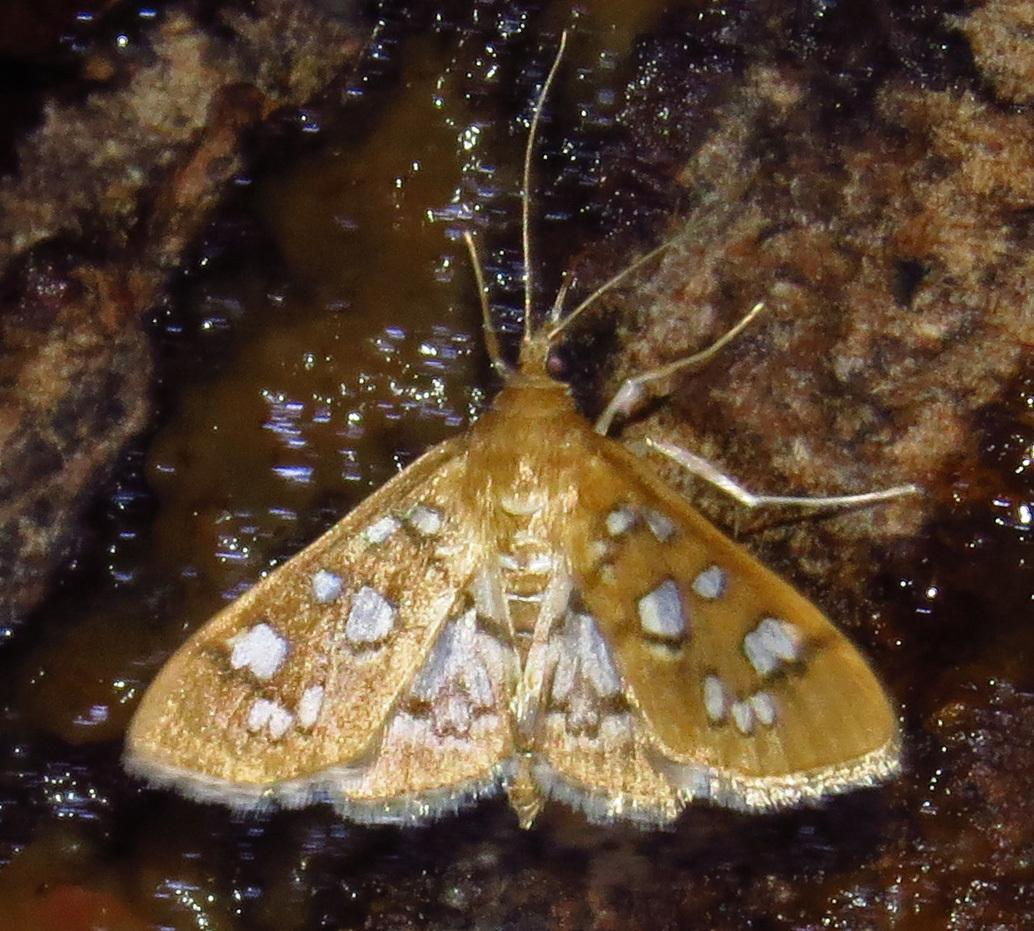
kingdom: Animalia
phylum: Arthropoda
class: Insecta
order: Lepidoptera
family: Crambidae
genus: Samea
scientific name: Samea baccatalis
